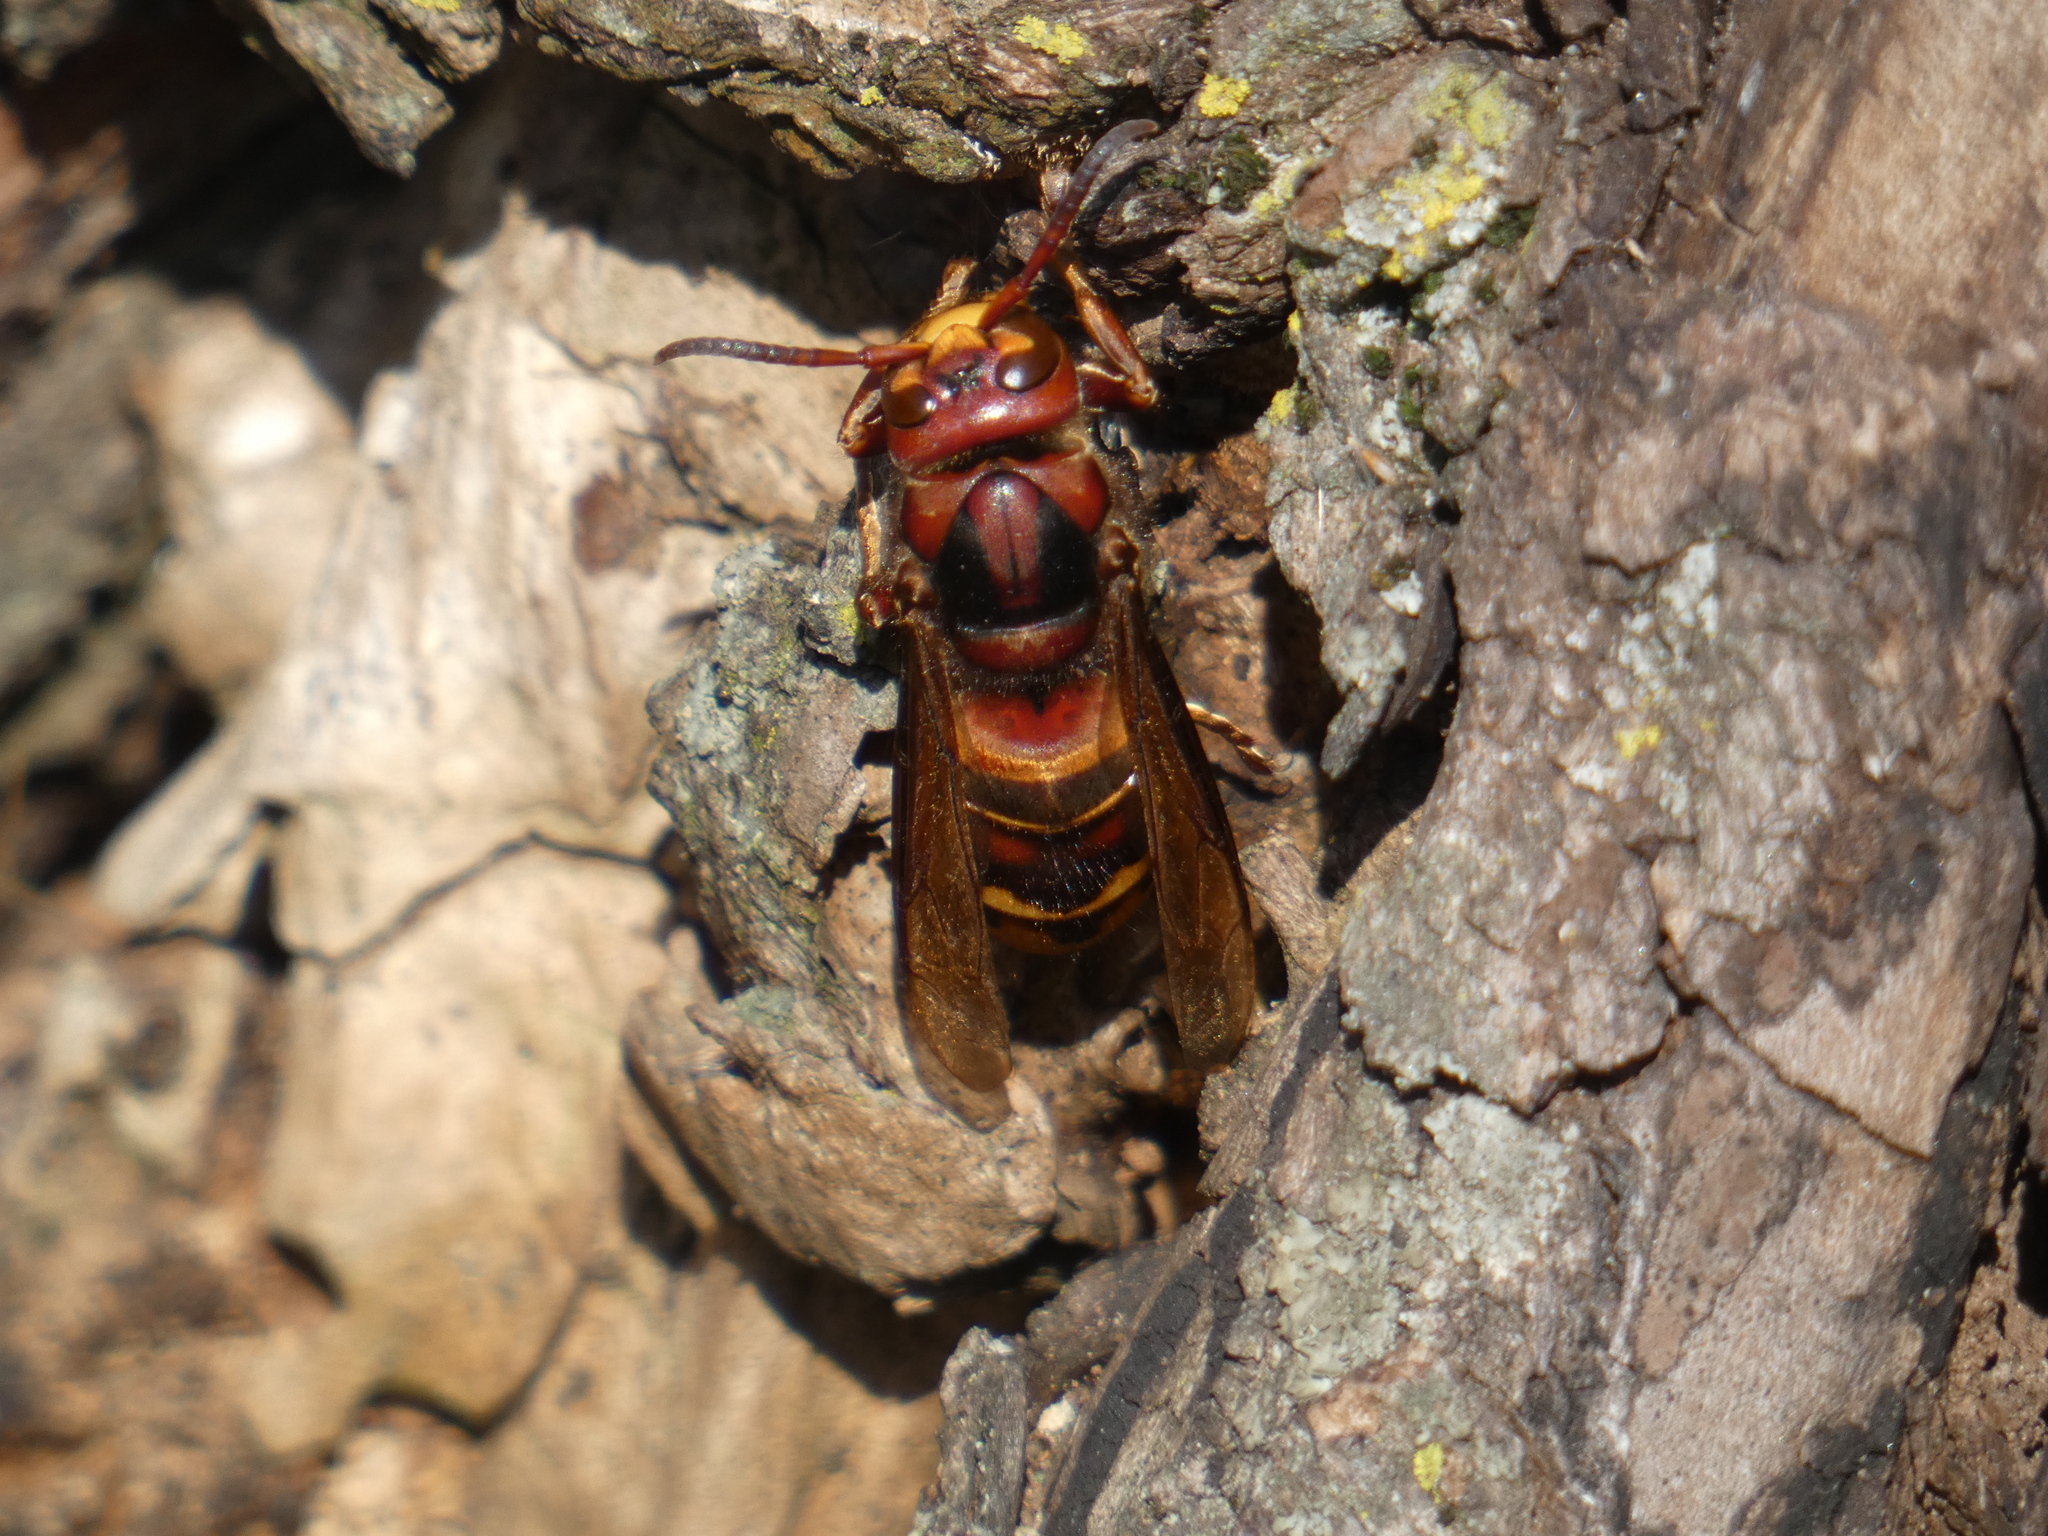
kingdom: Animalia
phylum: Arthropoda
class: Insecta
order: Hymenoptera
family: Vespidae
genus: Vespa
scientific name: Vespa crabro
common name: Hornet
